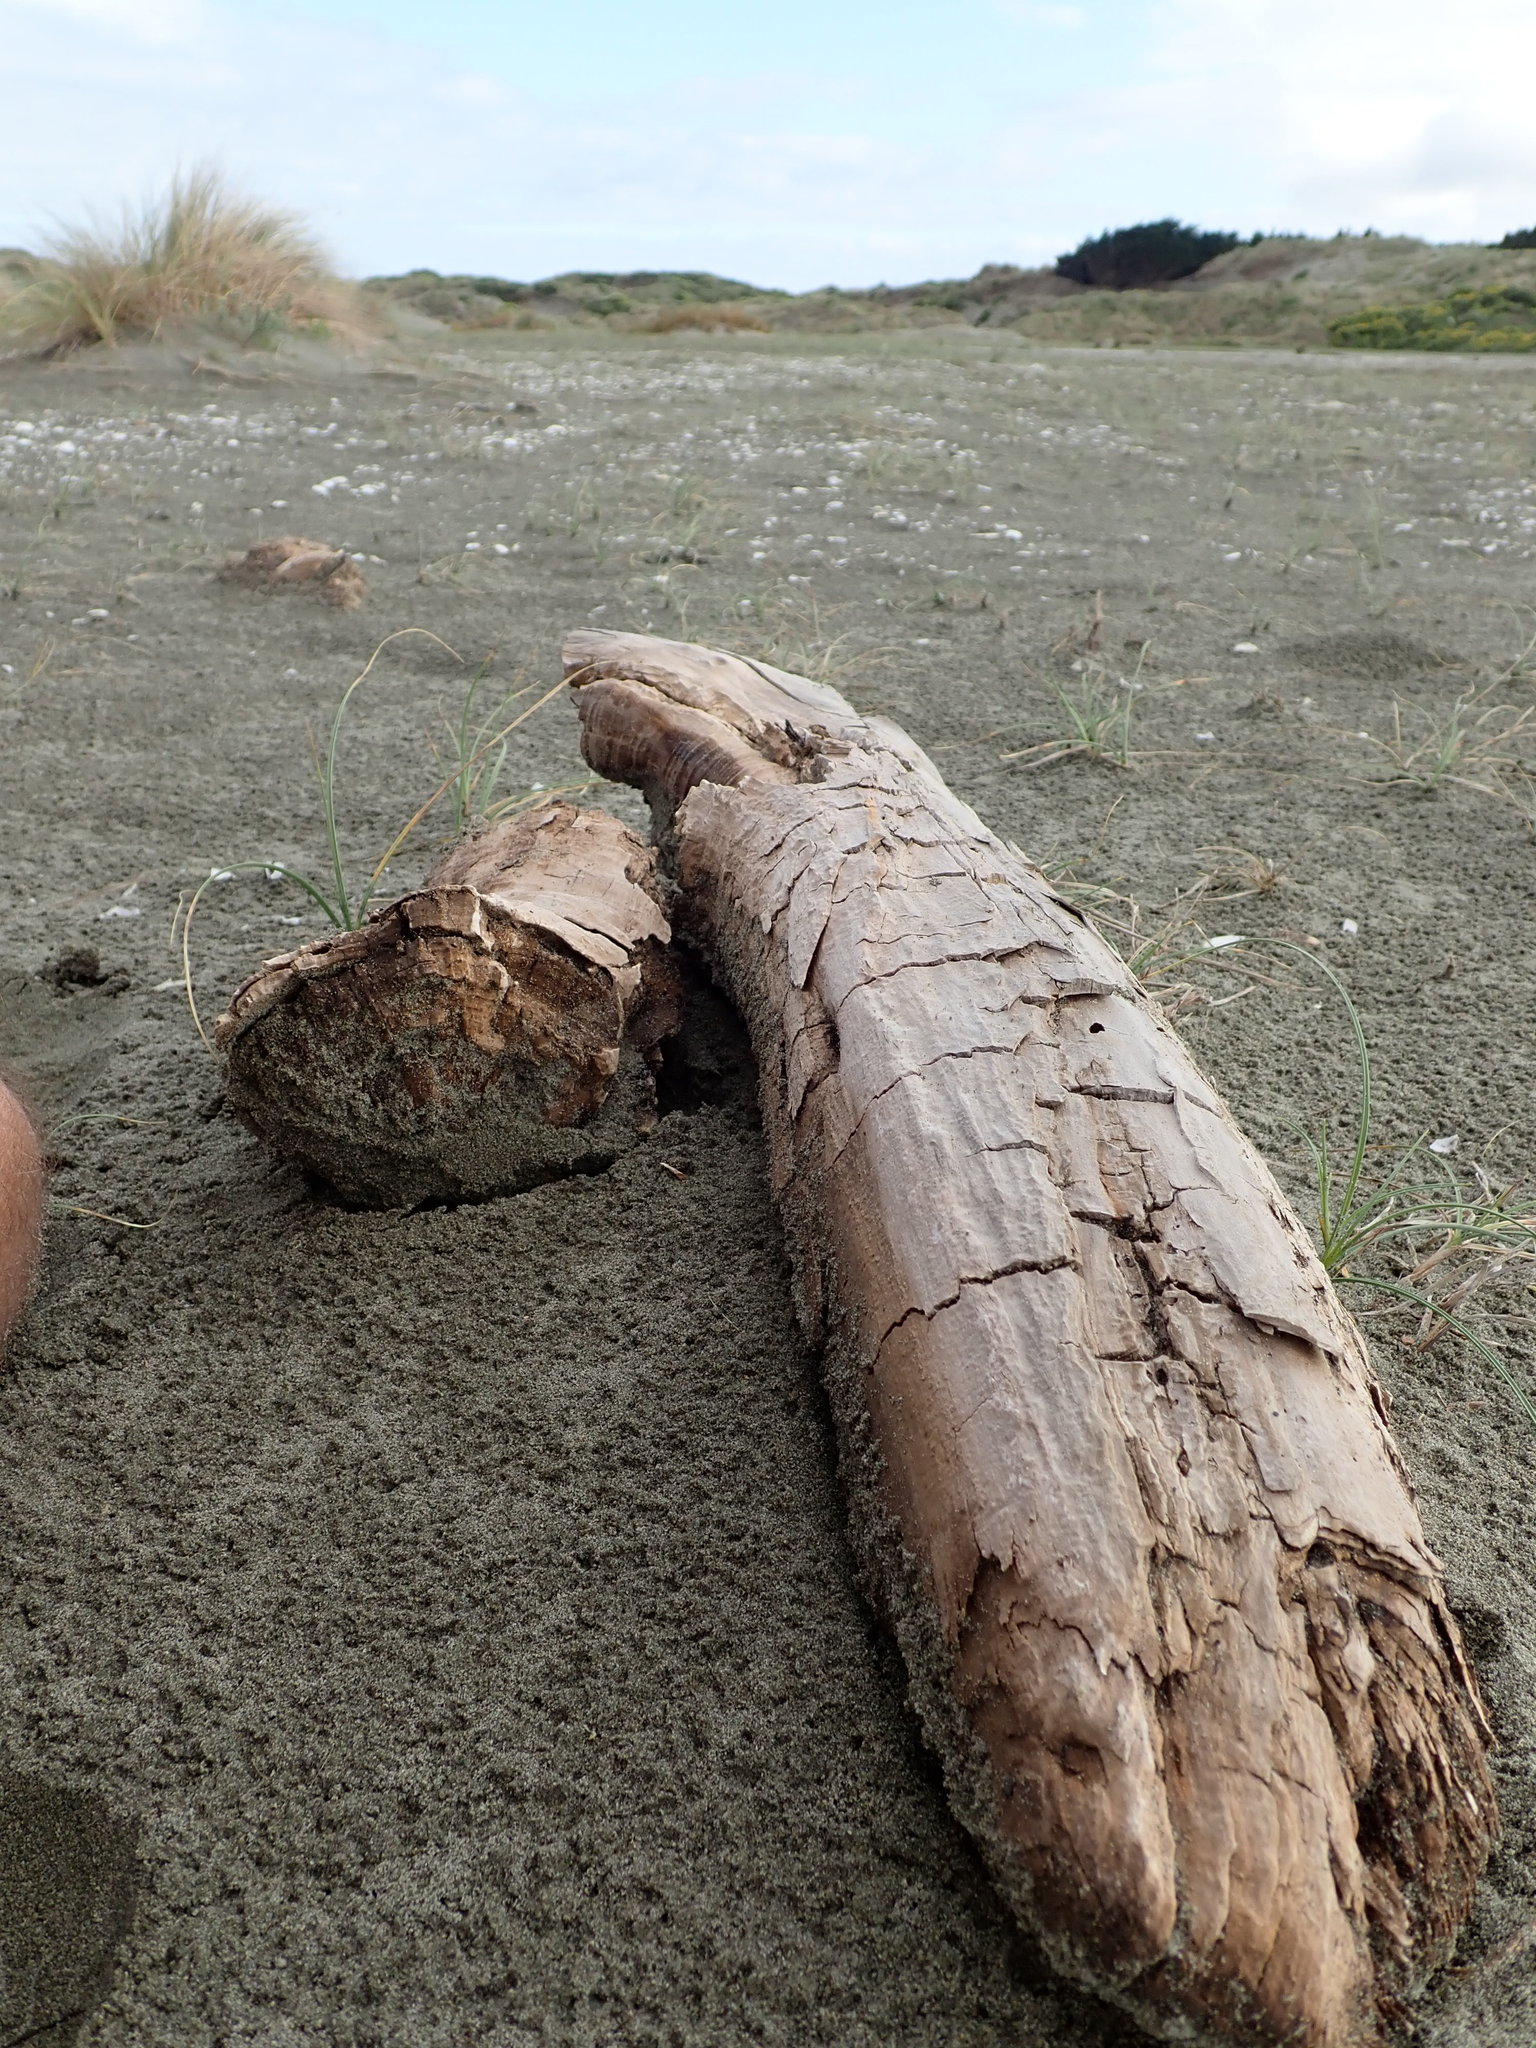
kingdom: Animalia
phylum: Arthropoda
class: Insecta
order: Dermaptera
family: Anisolabididae
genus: Anisolabis
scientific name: Anisolabis littorea
